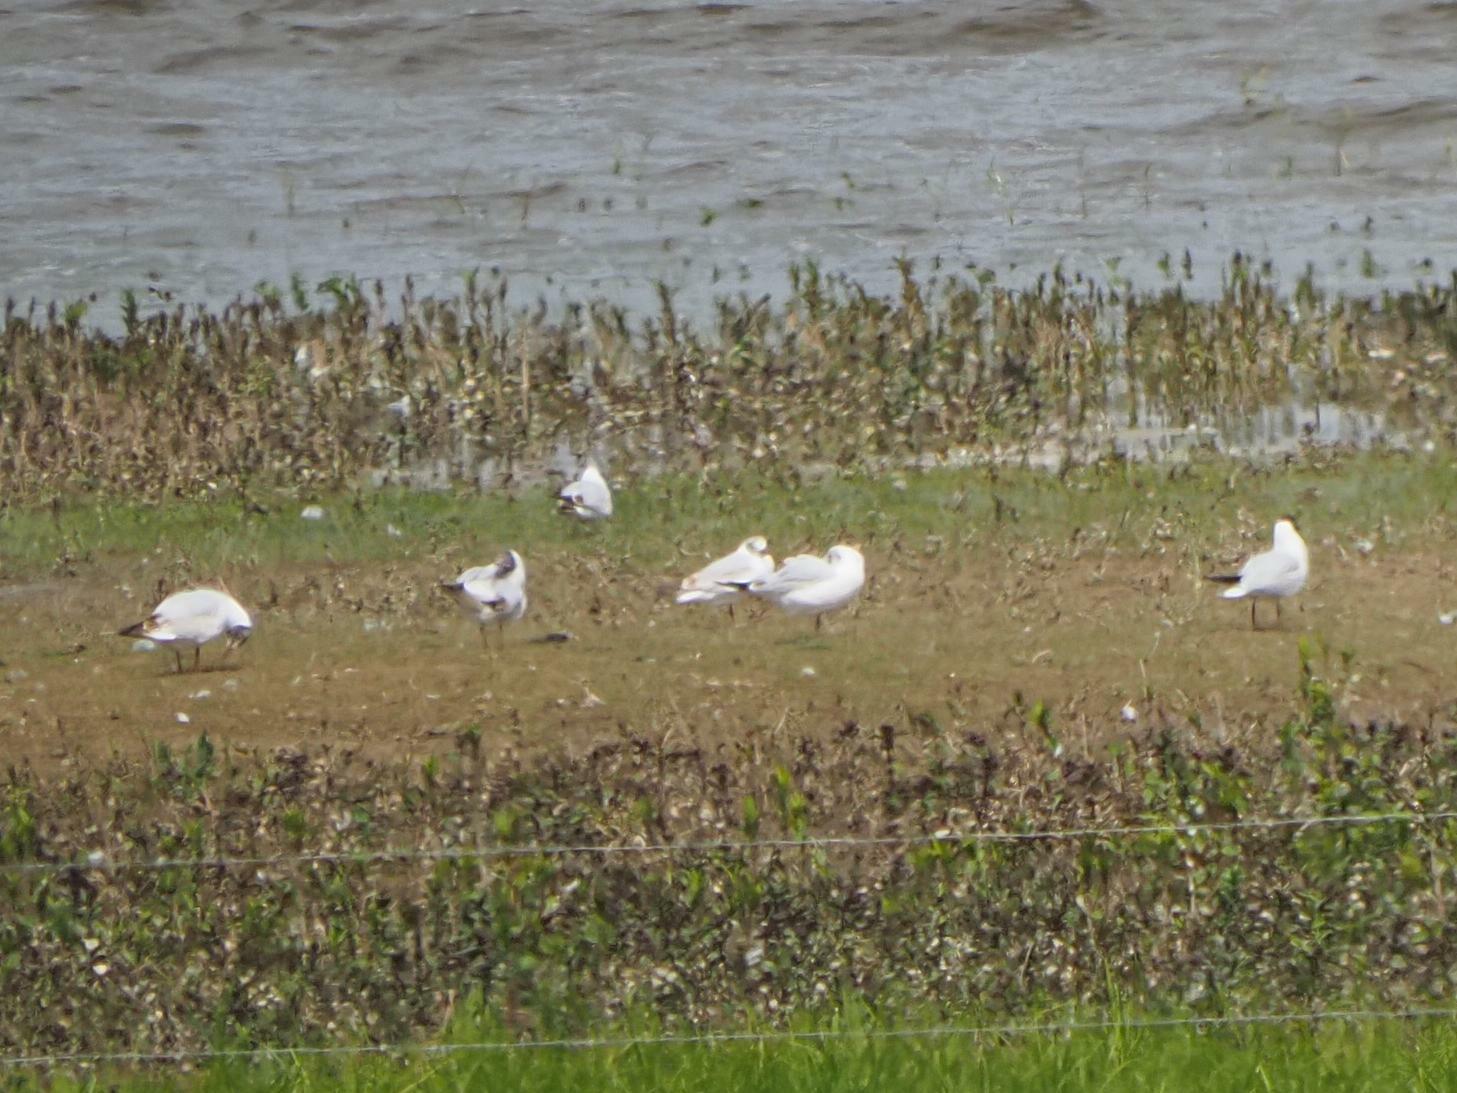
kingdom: Animalia
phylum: Chordata
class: Aves
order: Charadriiformes
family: Laridae
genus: Chroicocephalus
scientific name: Chroicocephalus ridibundus
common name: Black-headed gull
